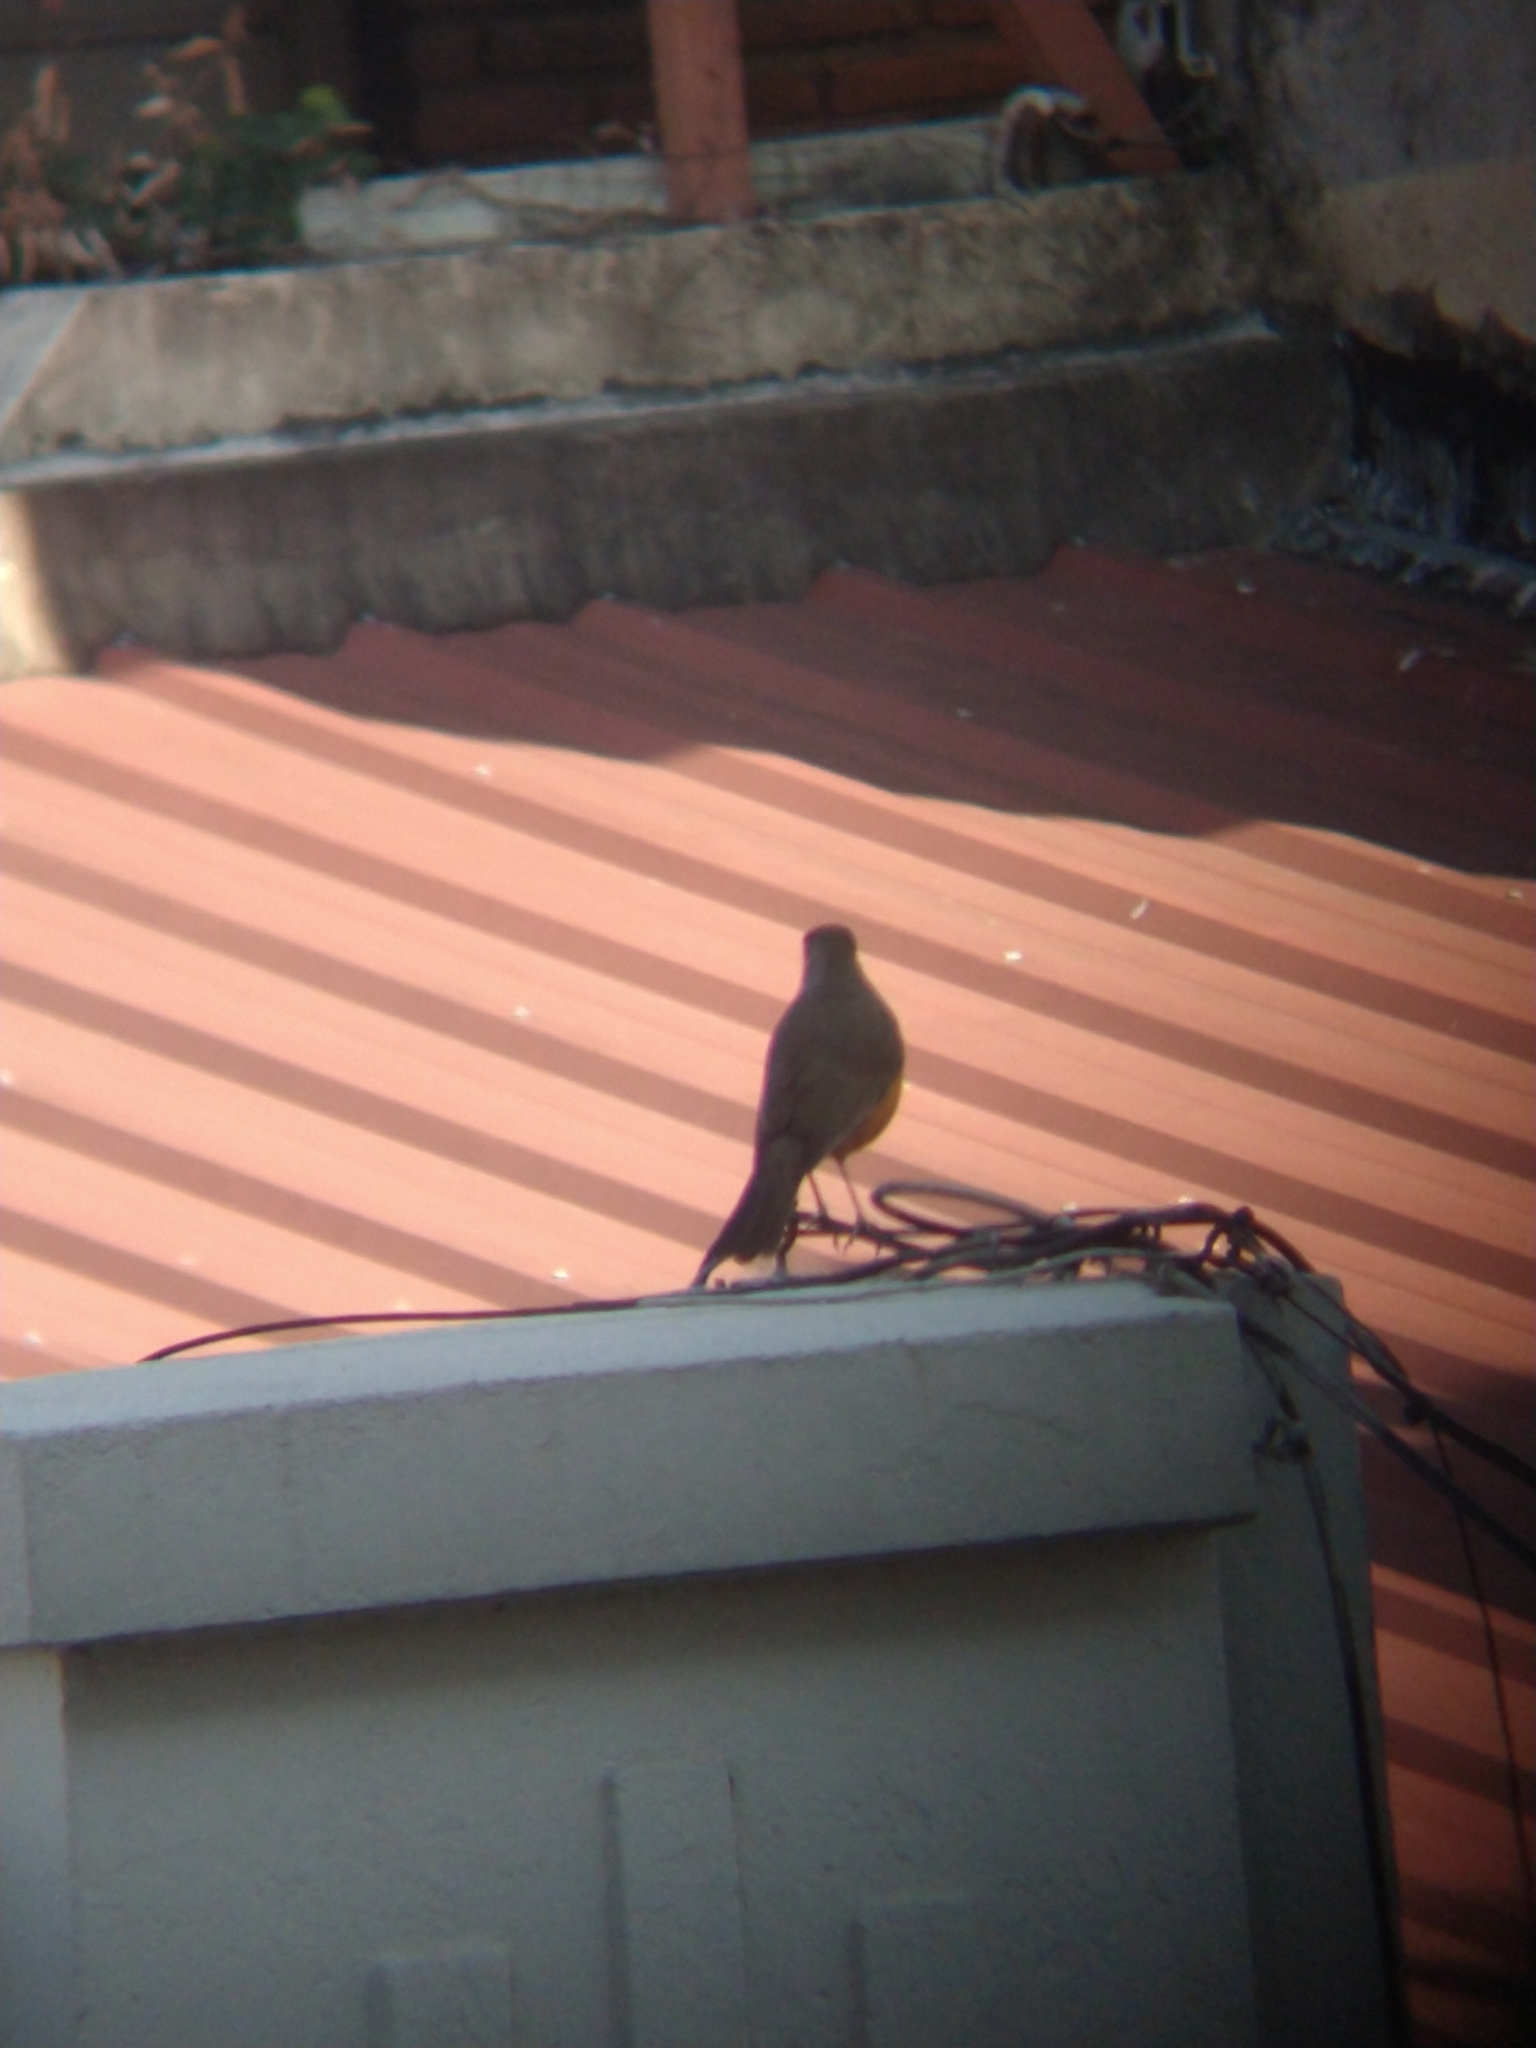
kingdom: Animalia
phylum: Chordata
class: Aves
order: Passeriformes
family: Turdidae
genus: Turdus
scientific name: Turdus rufiventris
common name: Rufous-bellied thrush
